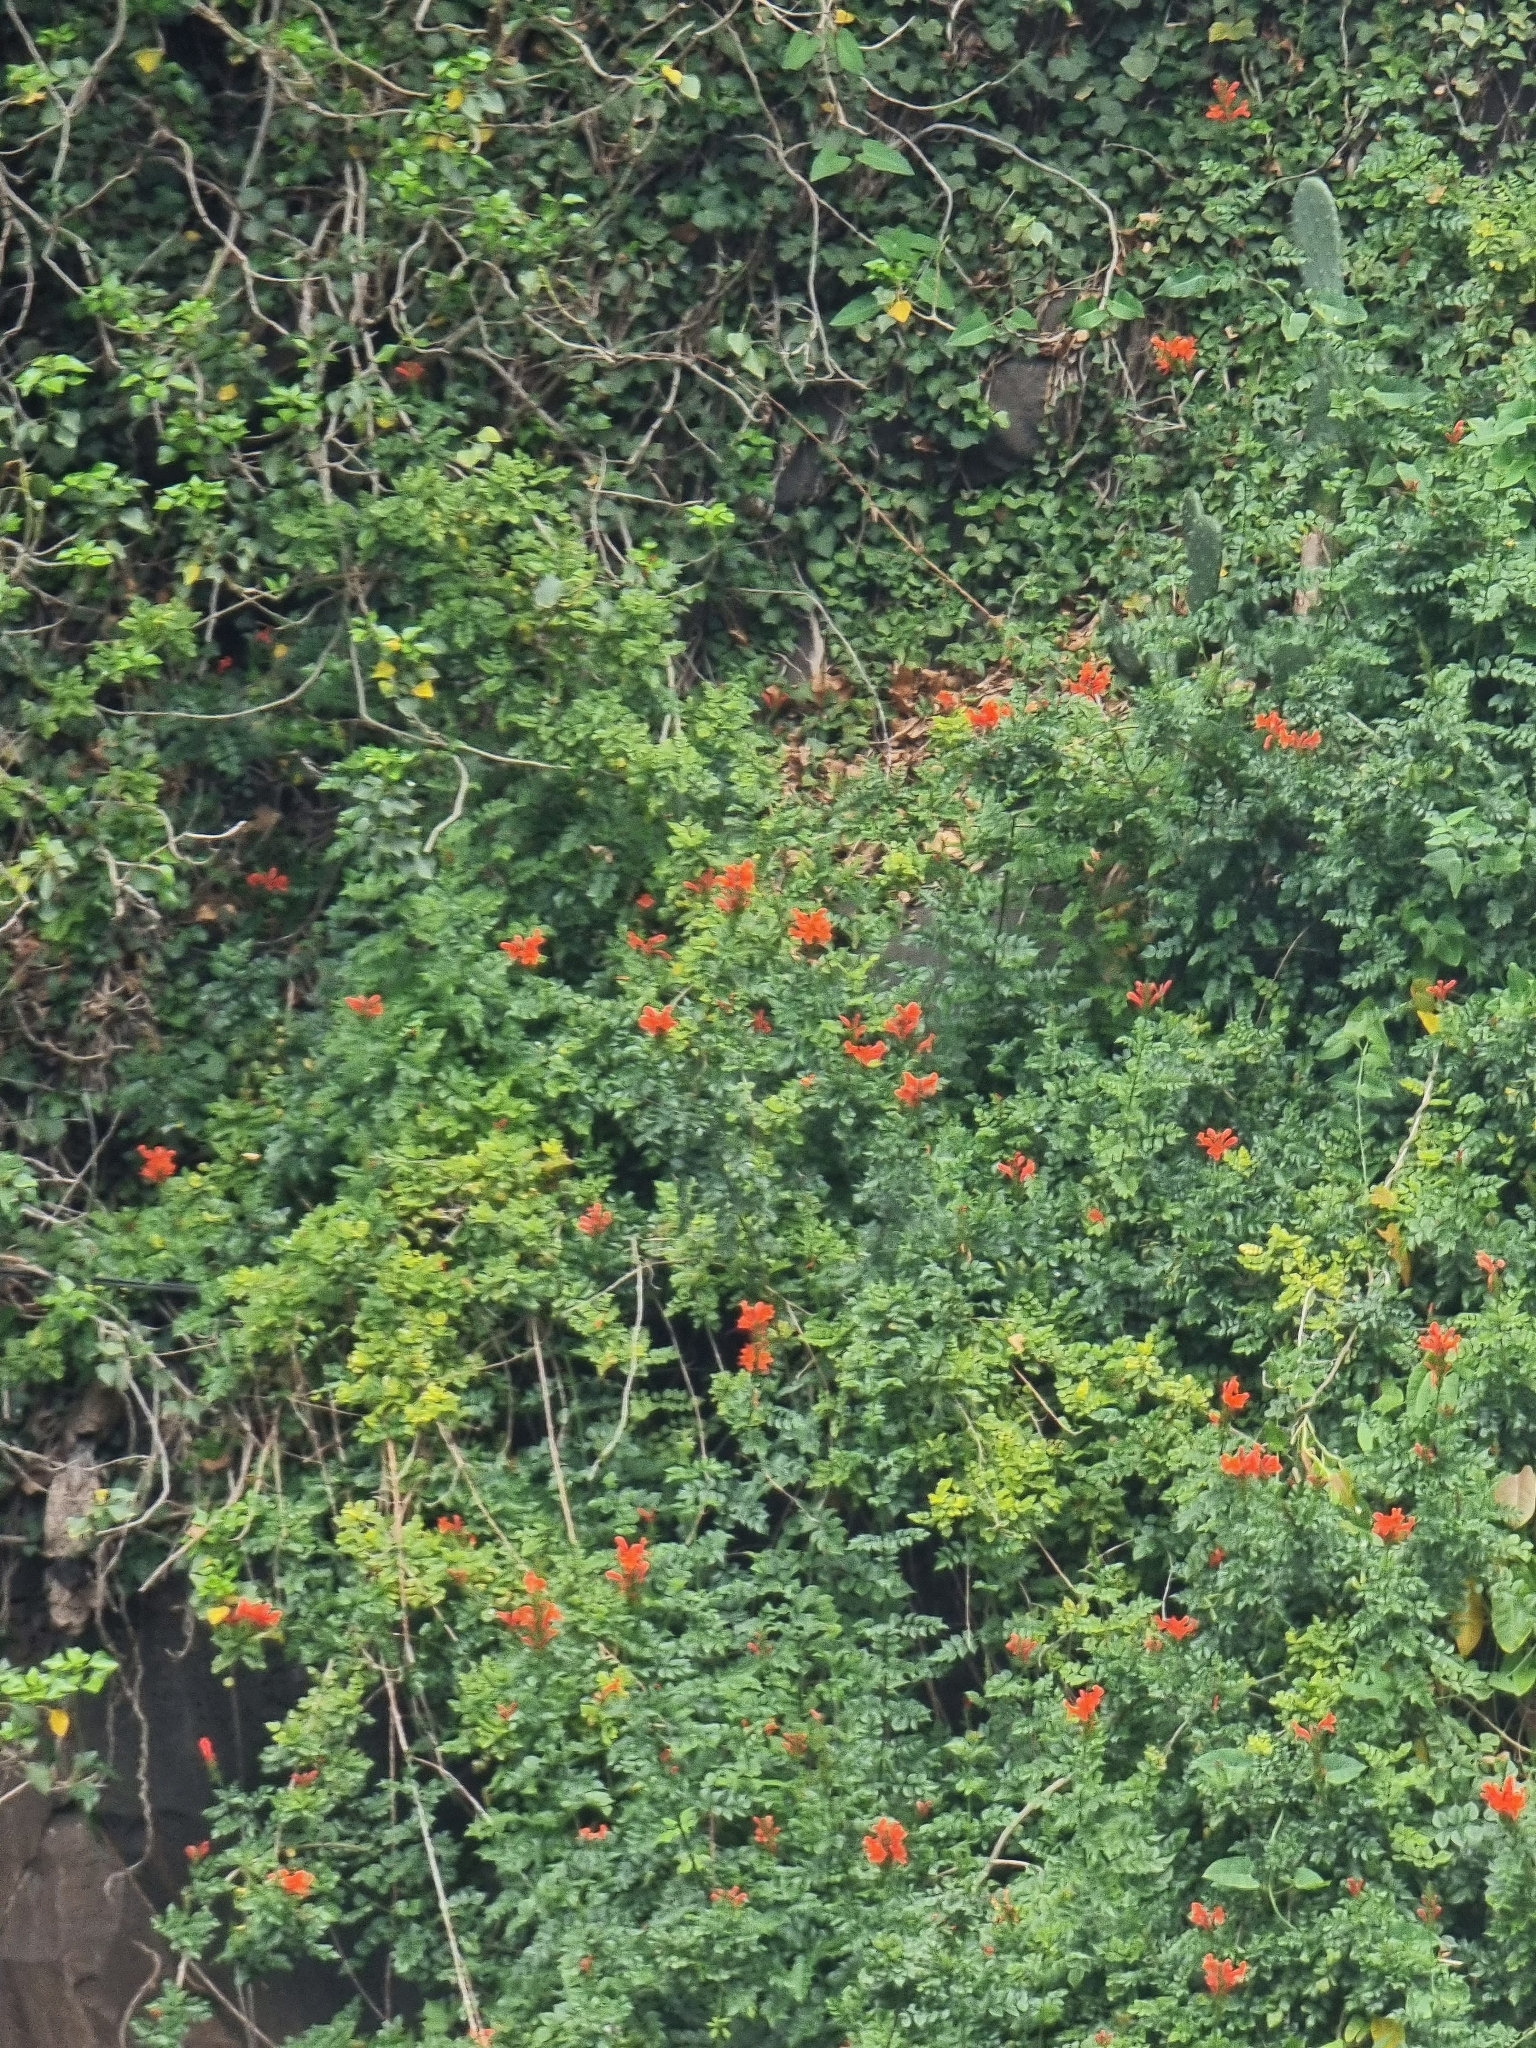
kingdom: Plantae
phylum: Tracheophyta
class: Magnoliopsida
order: Lamiales
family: Bignoniaceae
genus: Tecomaria
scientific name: Tecomaria capensis
